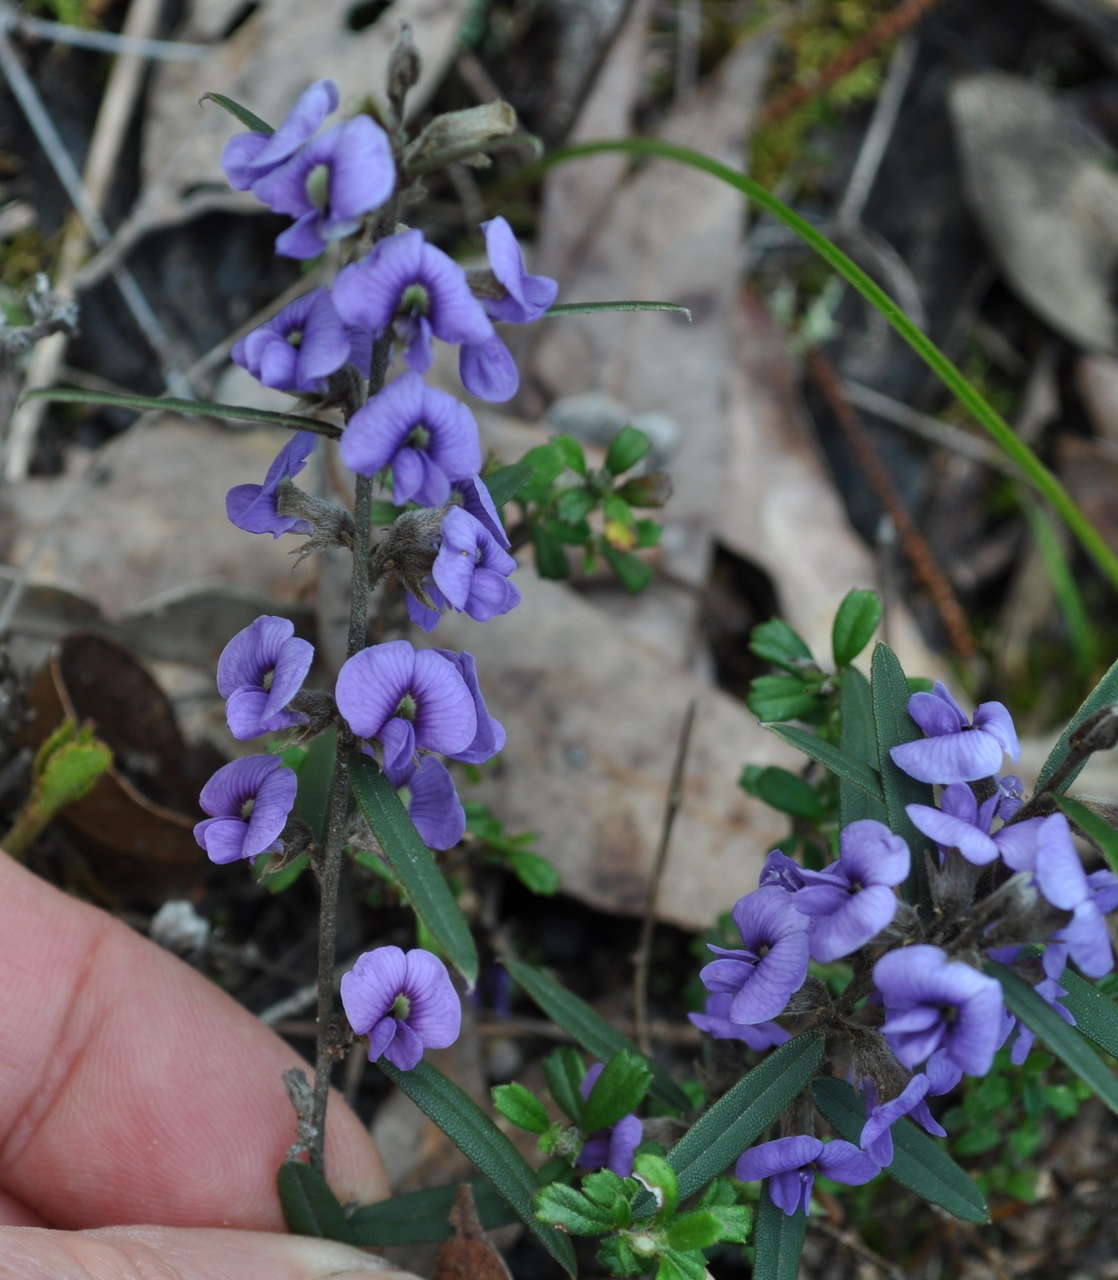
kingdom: Plantae
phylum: Tracheophyta
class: Magnoliopsida
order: Fabales
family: Fabaceae
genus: Hovea
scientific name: Hovea heterophylla
